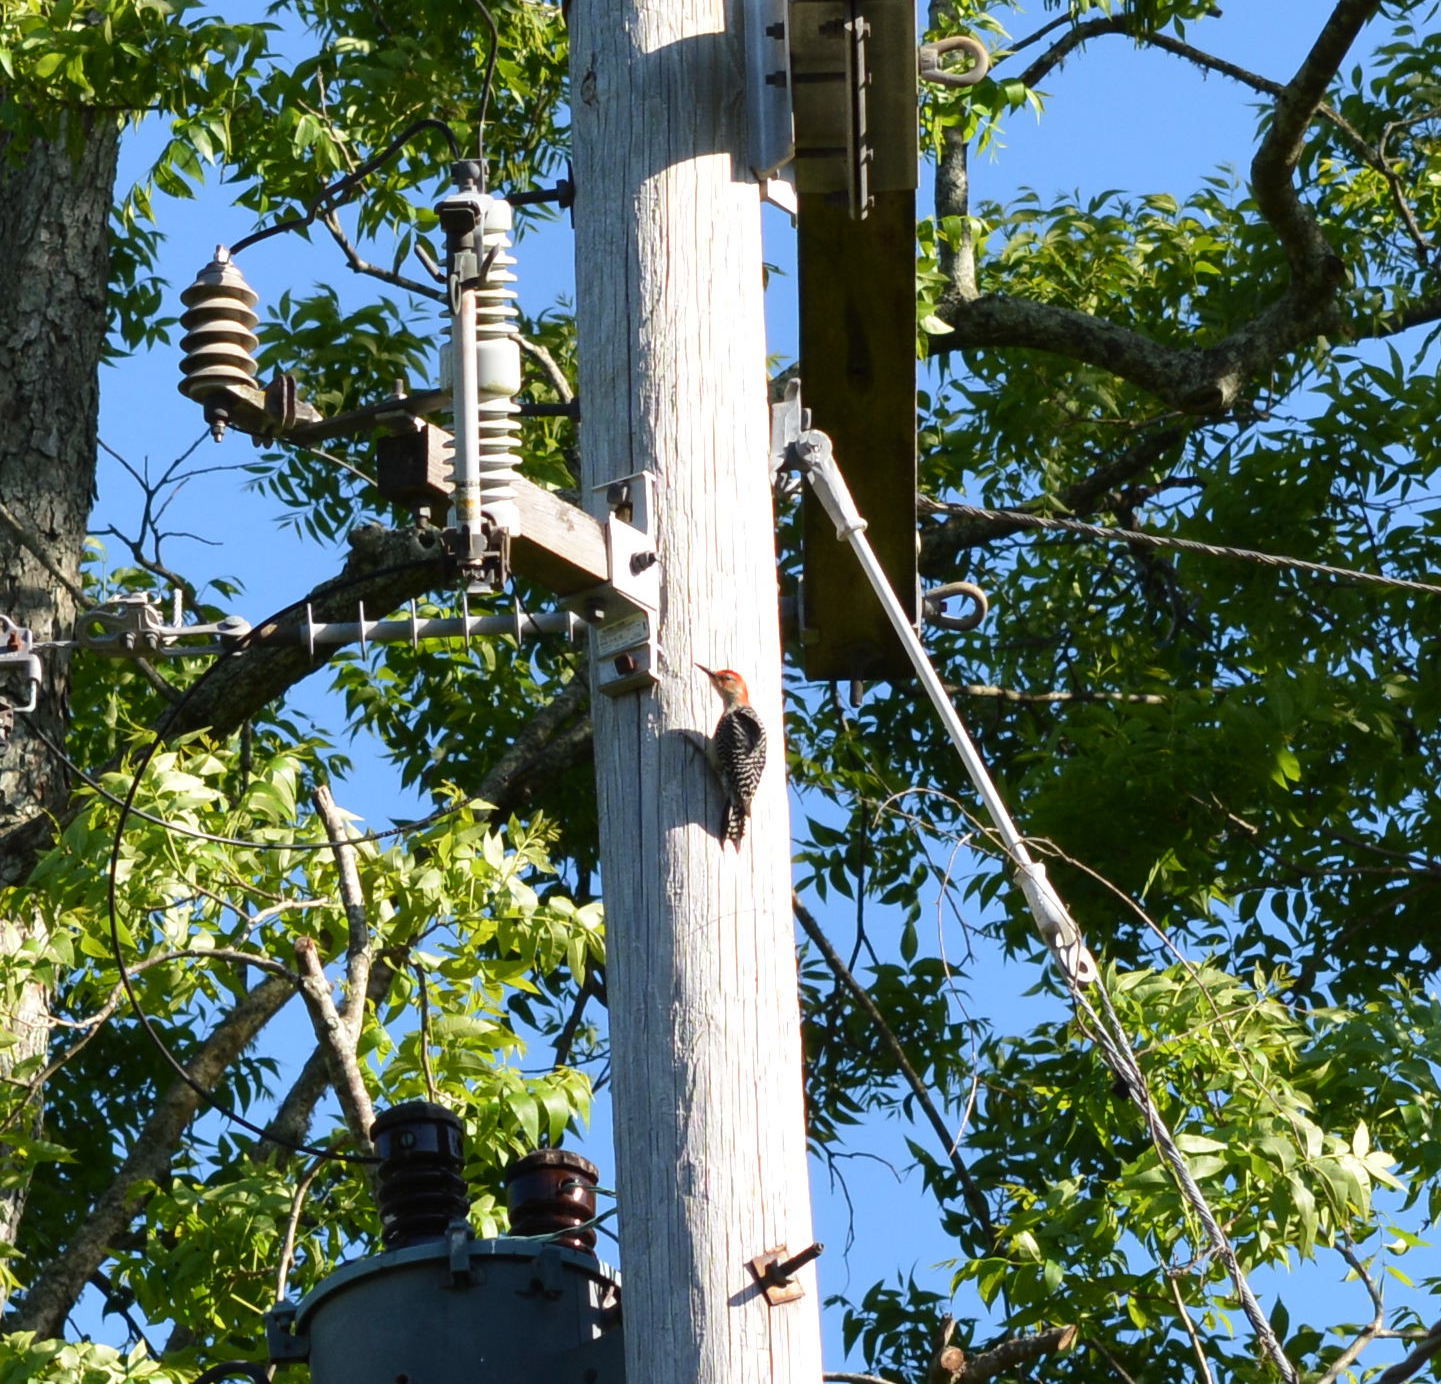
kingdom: Animalia
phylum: Chordata
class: Aves
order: Piciformes
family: Picidae
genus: Melanerpes
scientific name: Melanerpes carolinus
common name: Red-bellied woodpecker
